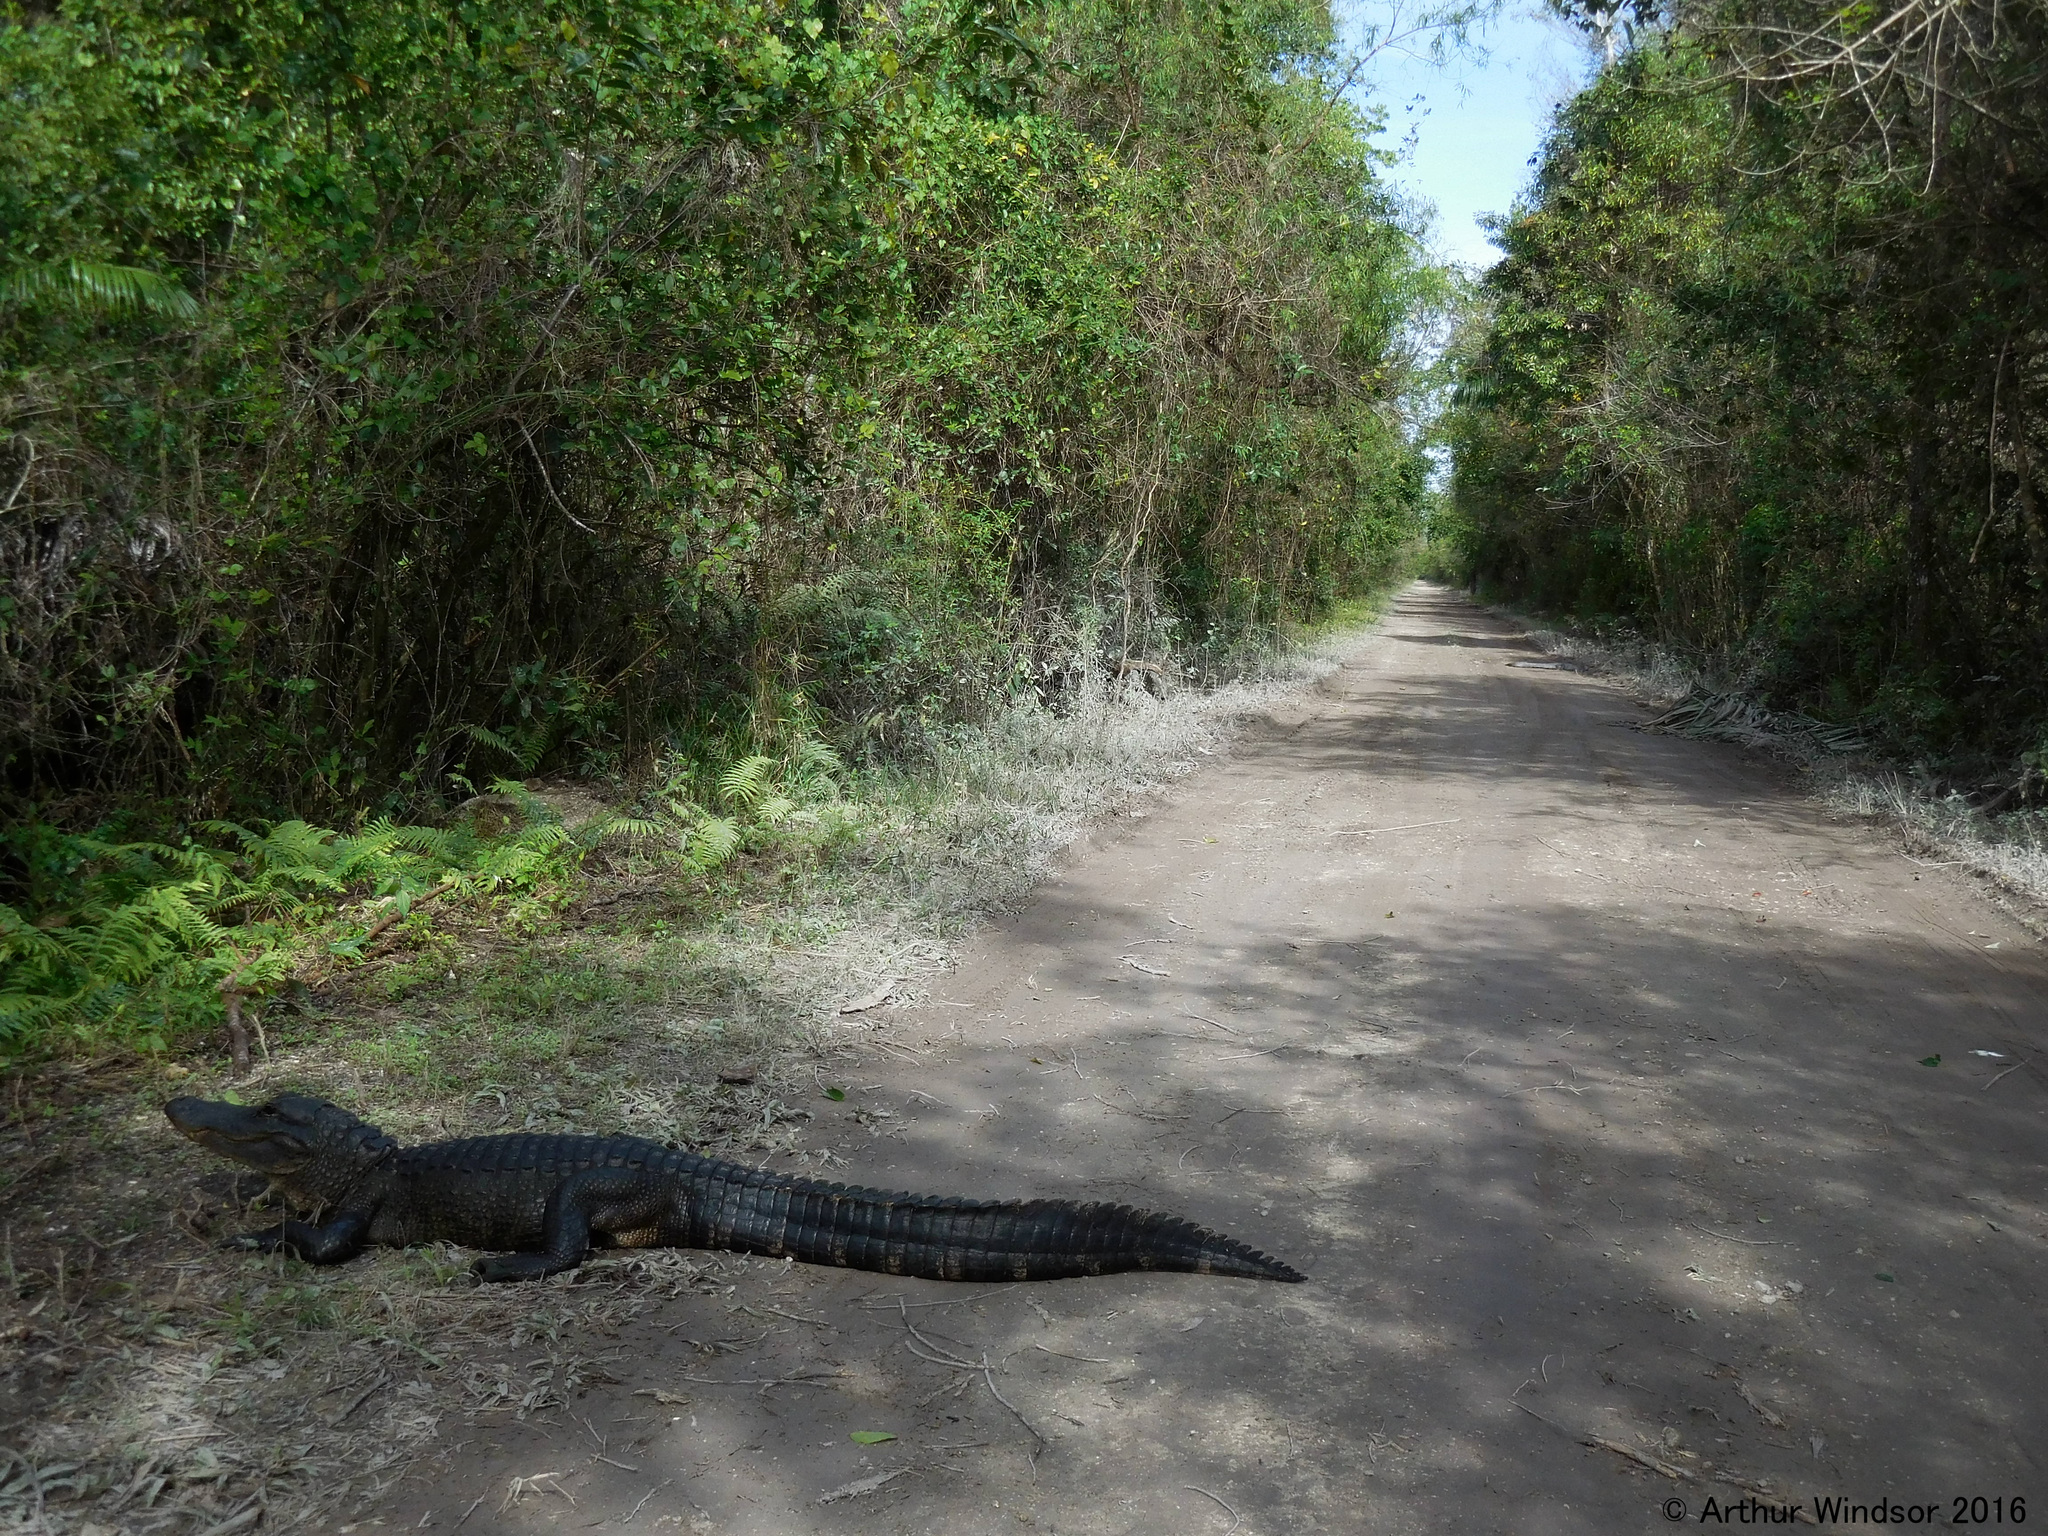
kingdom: Animalia
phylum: Chordata
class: Crocodylia
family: Alligatoridae
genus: Alligator
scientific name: Alligator mississippiensis
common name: American alligator
